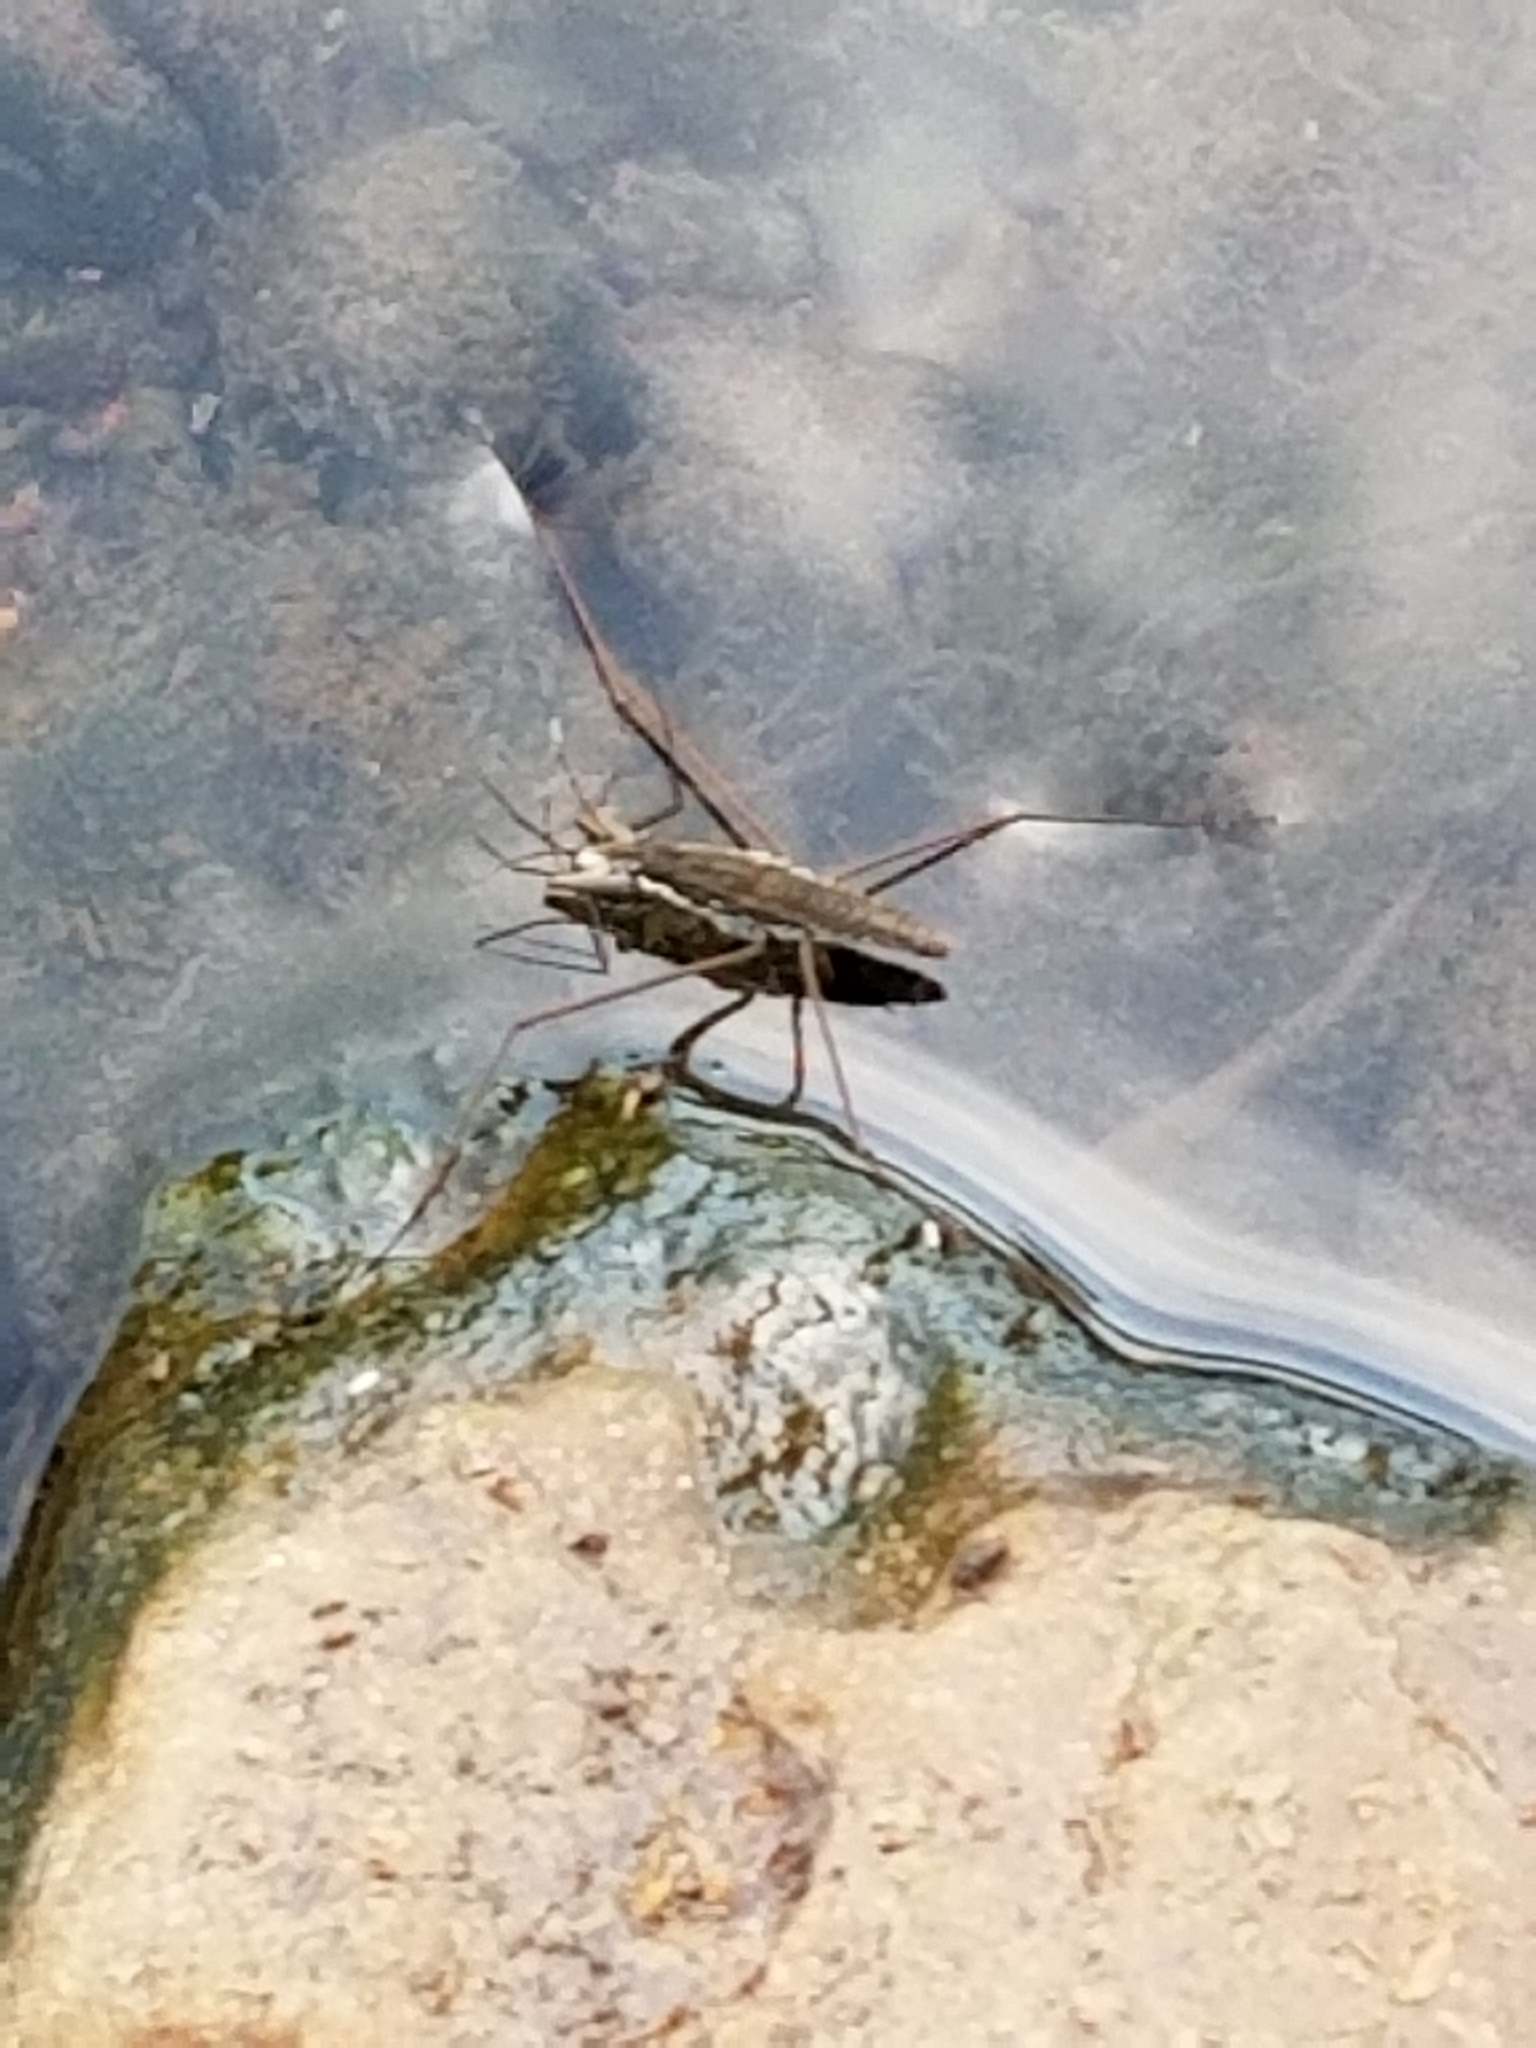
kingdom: Animalia
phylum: Arthropoda
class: Insecta
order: Hemiptera
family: Gerridae
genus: Aquarius
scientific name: Aquarius remigis
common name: Common water strider
